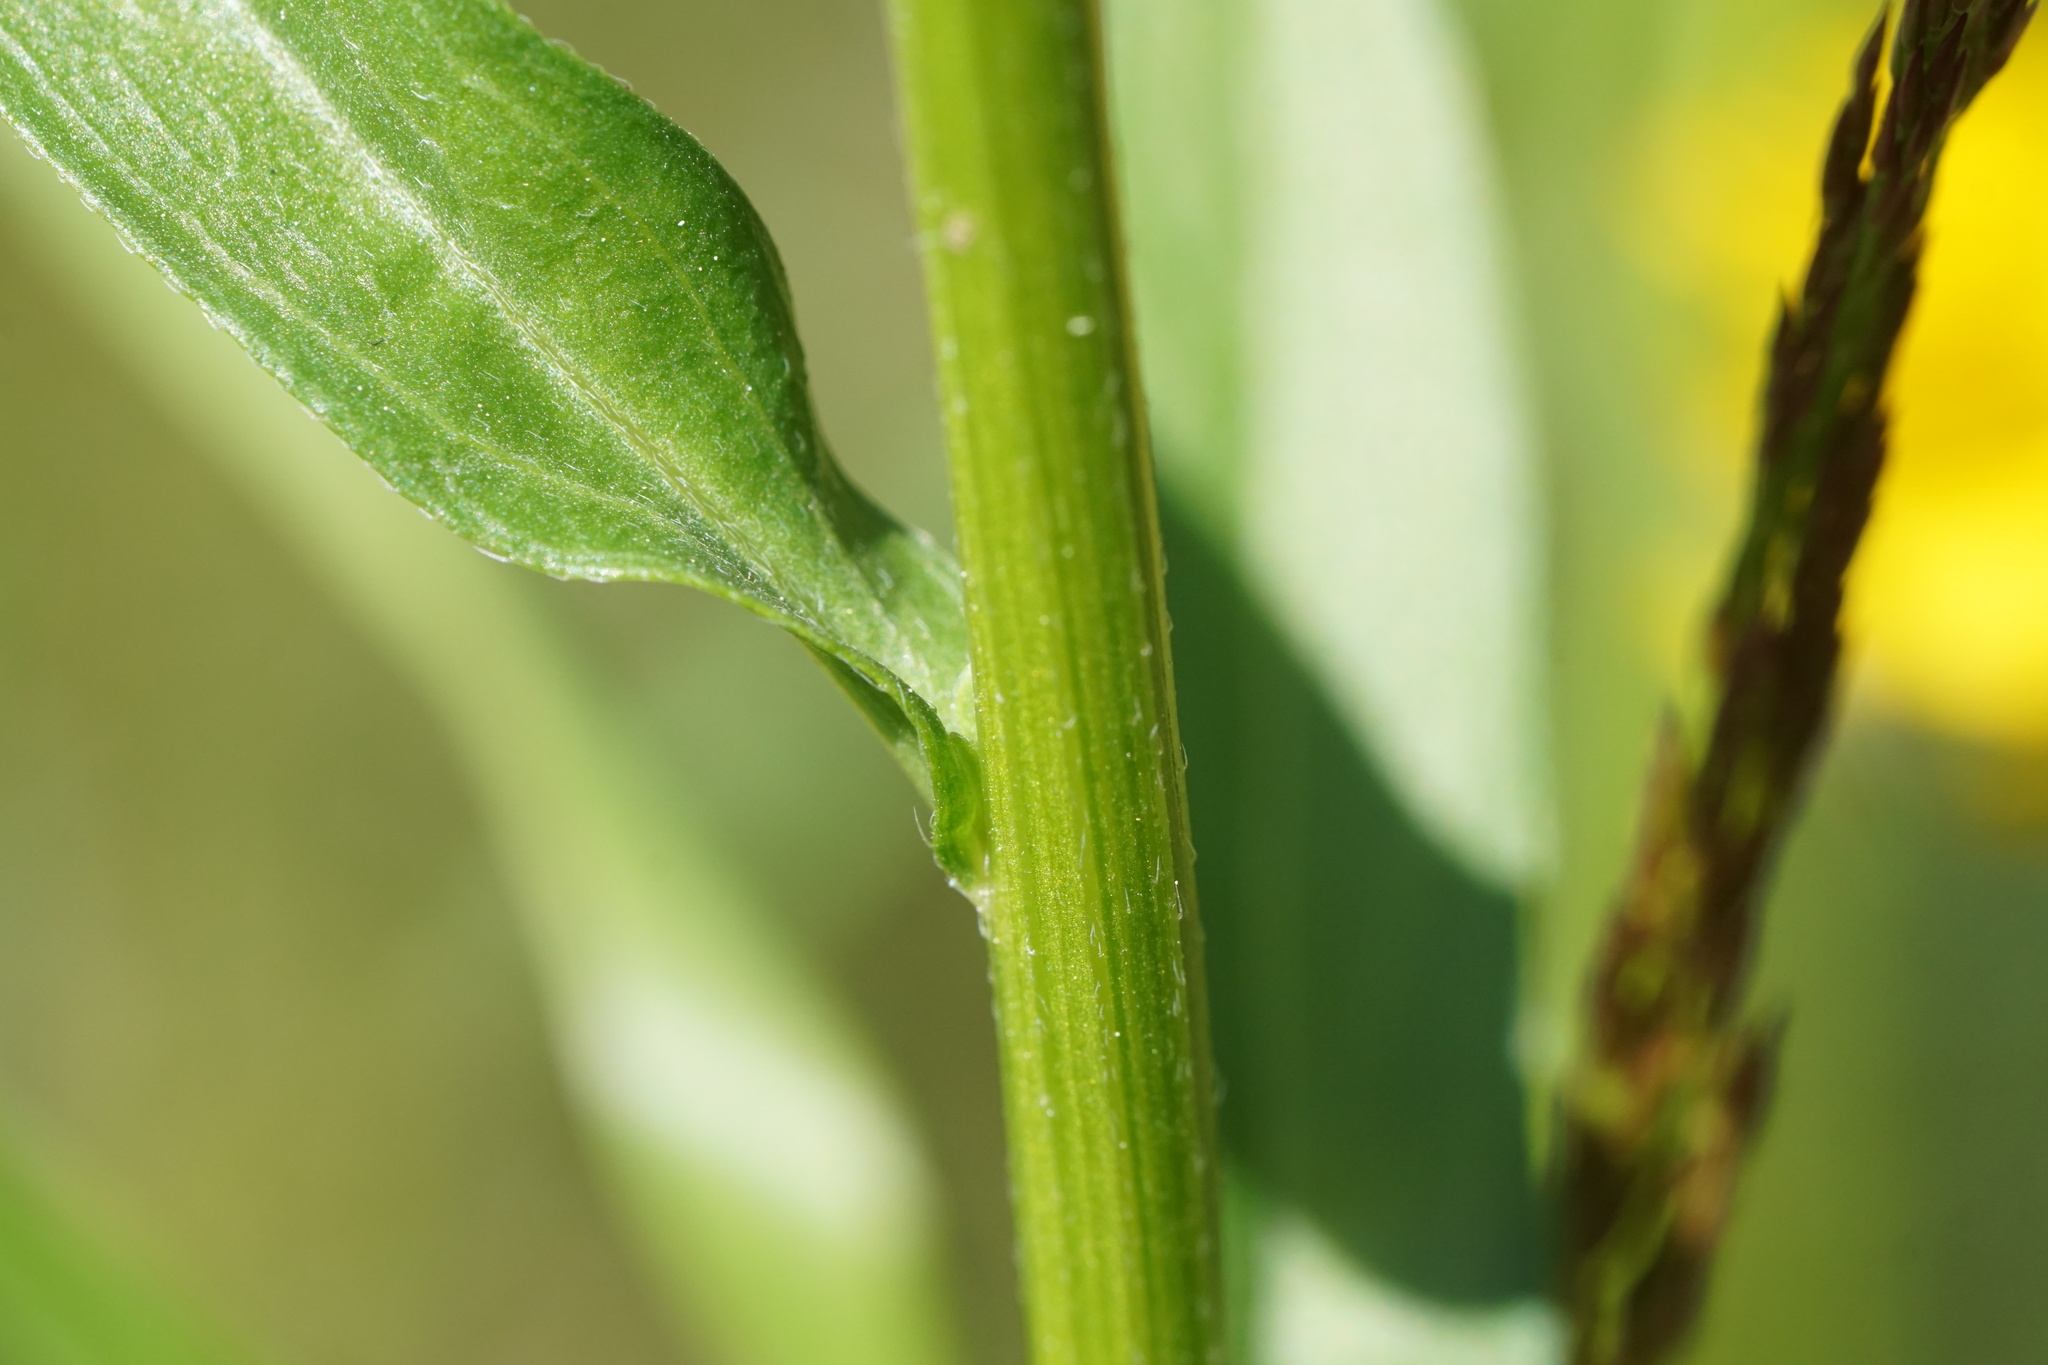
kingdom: Plantae
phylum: Tracheophyta
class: Magnoliopsida
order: Asterales
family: Asteraceae
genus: Erigeron
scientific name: Erigeron strigosus
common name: Common eastern fleabane
